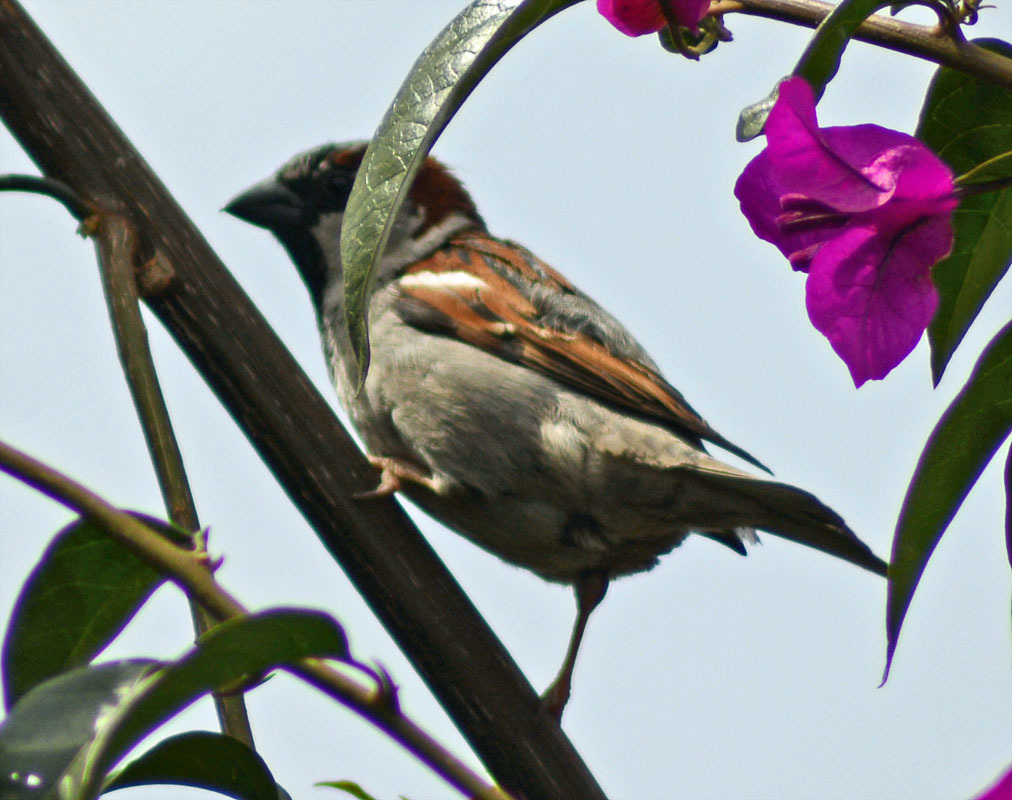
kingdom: Animalia
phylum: Chordata
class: Aves
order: Passeriformes
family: Passeridae
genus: Passer
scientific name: Passer domesticus
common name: House sparrow
